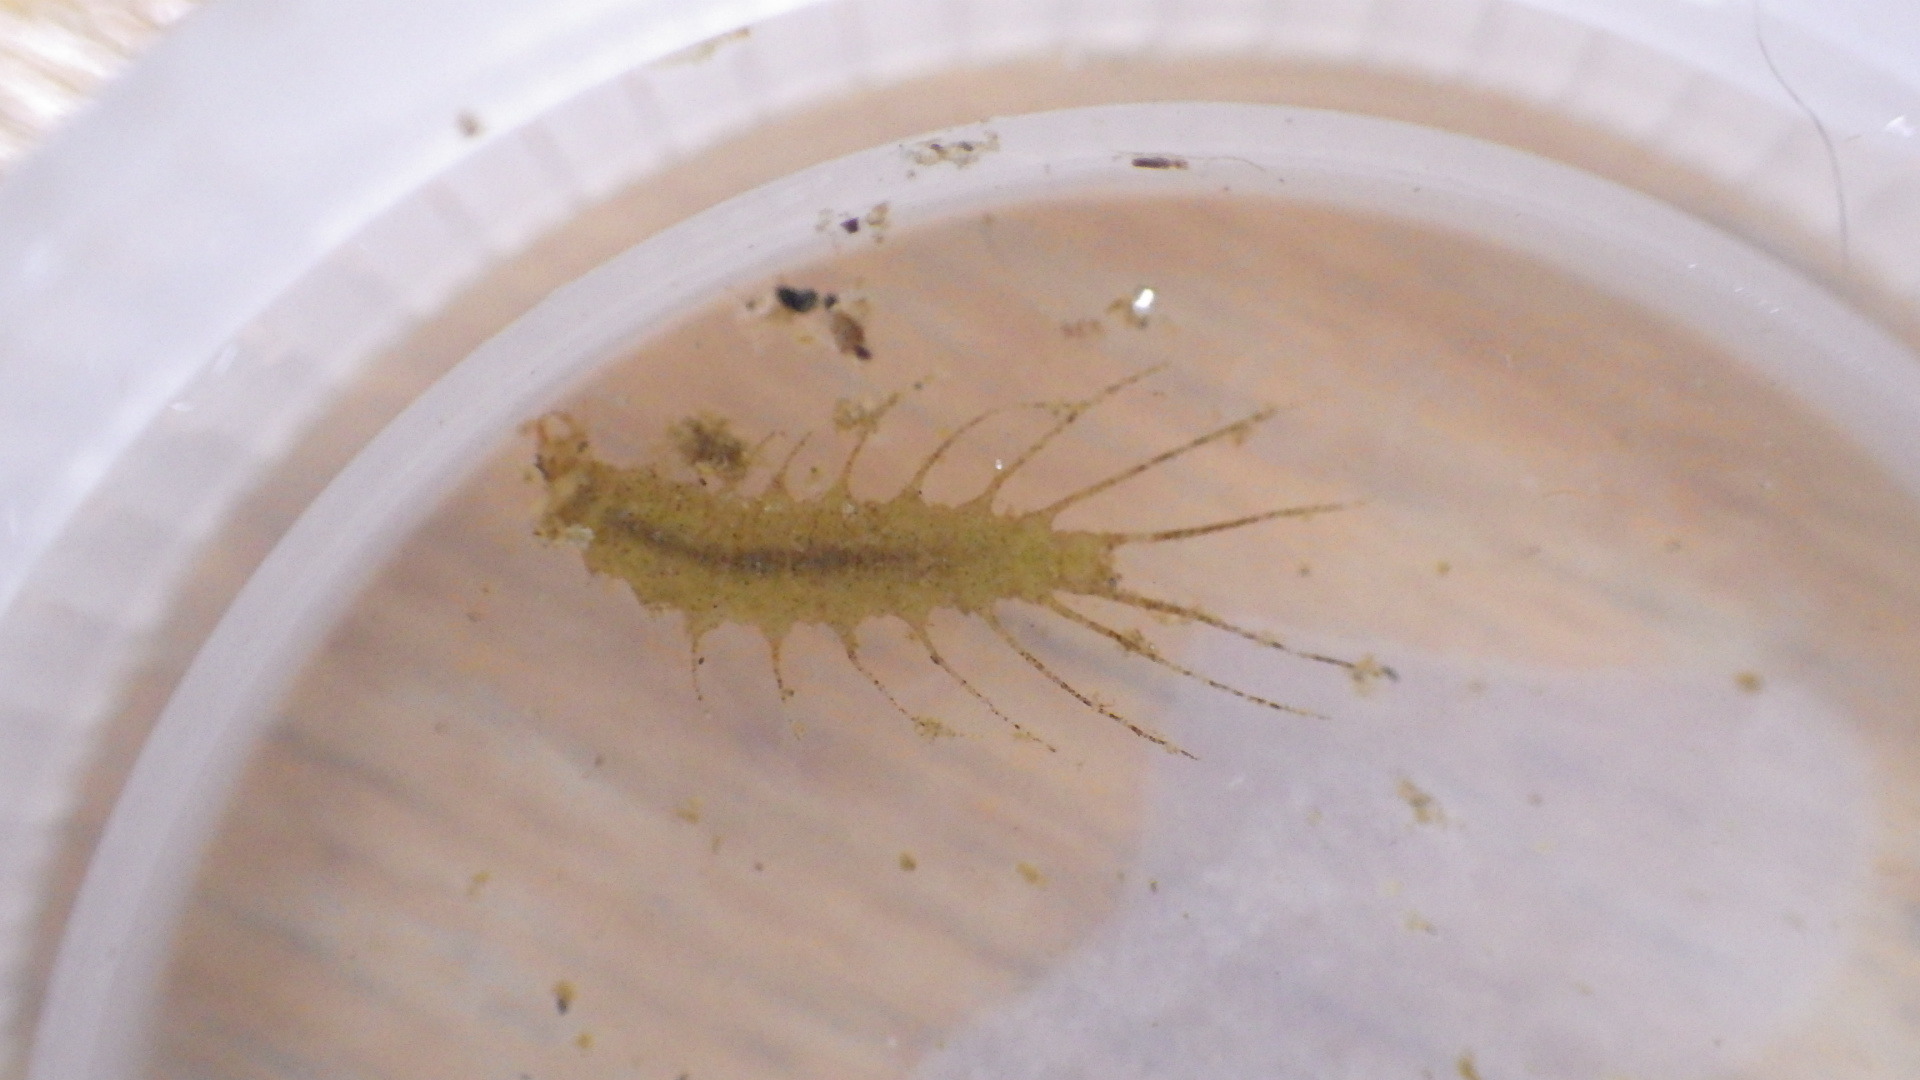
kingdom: Animalia
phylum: Arthropoda
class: Insecta
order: Coleoptera
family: Hydrophilidae
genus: Berosus
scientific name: Berosus
